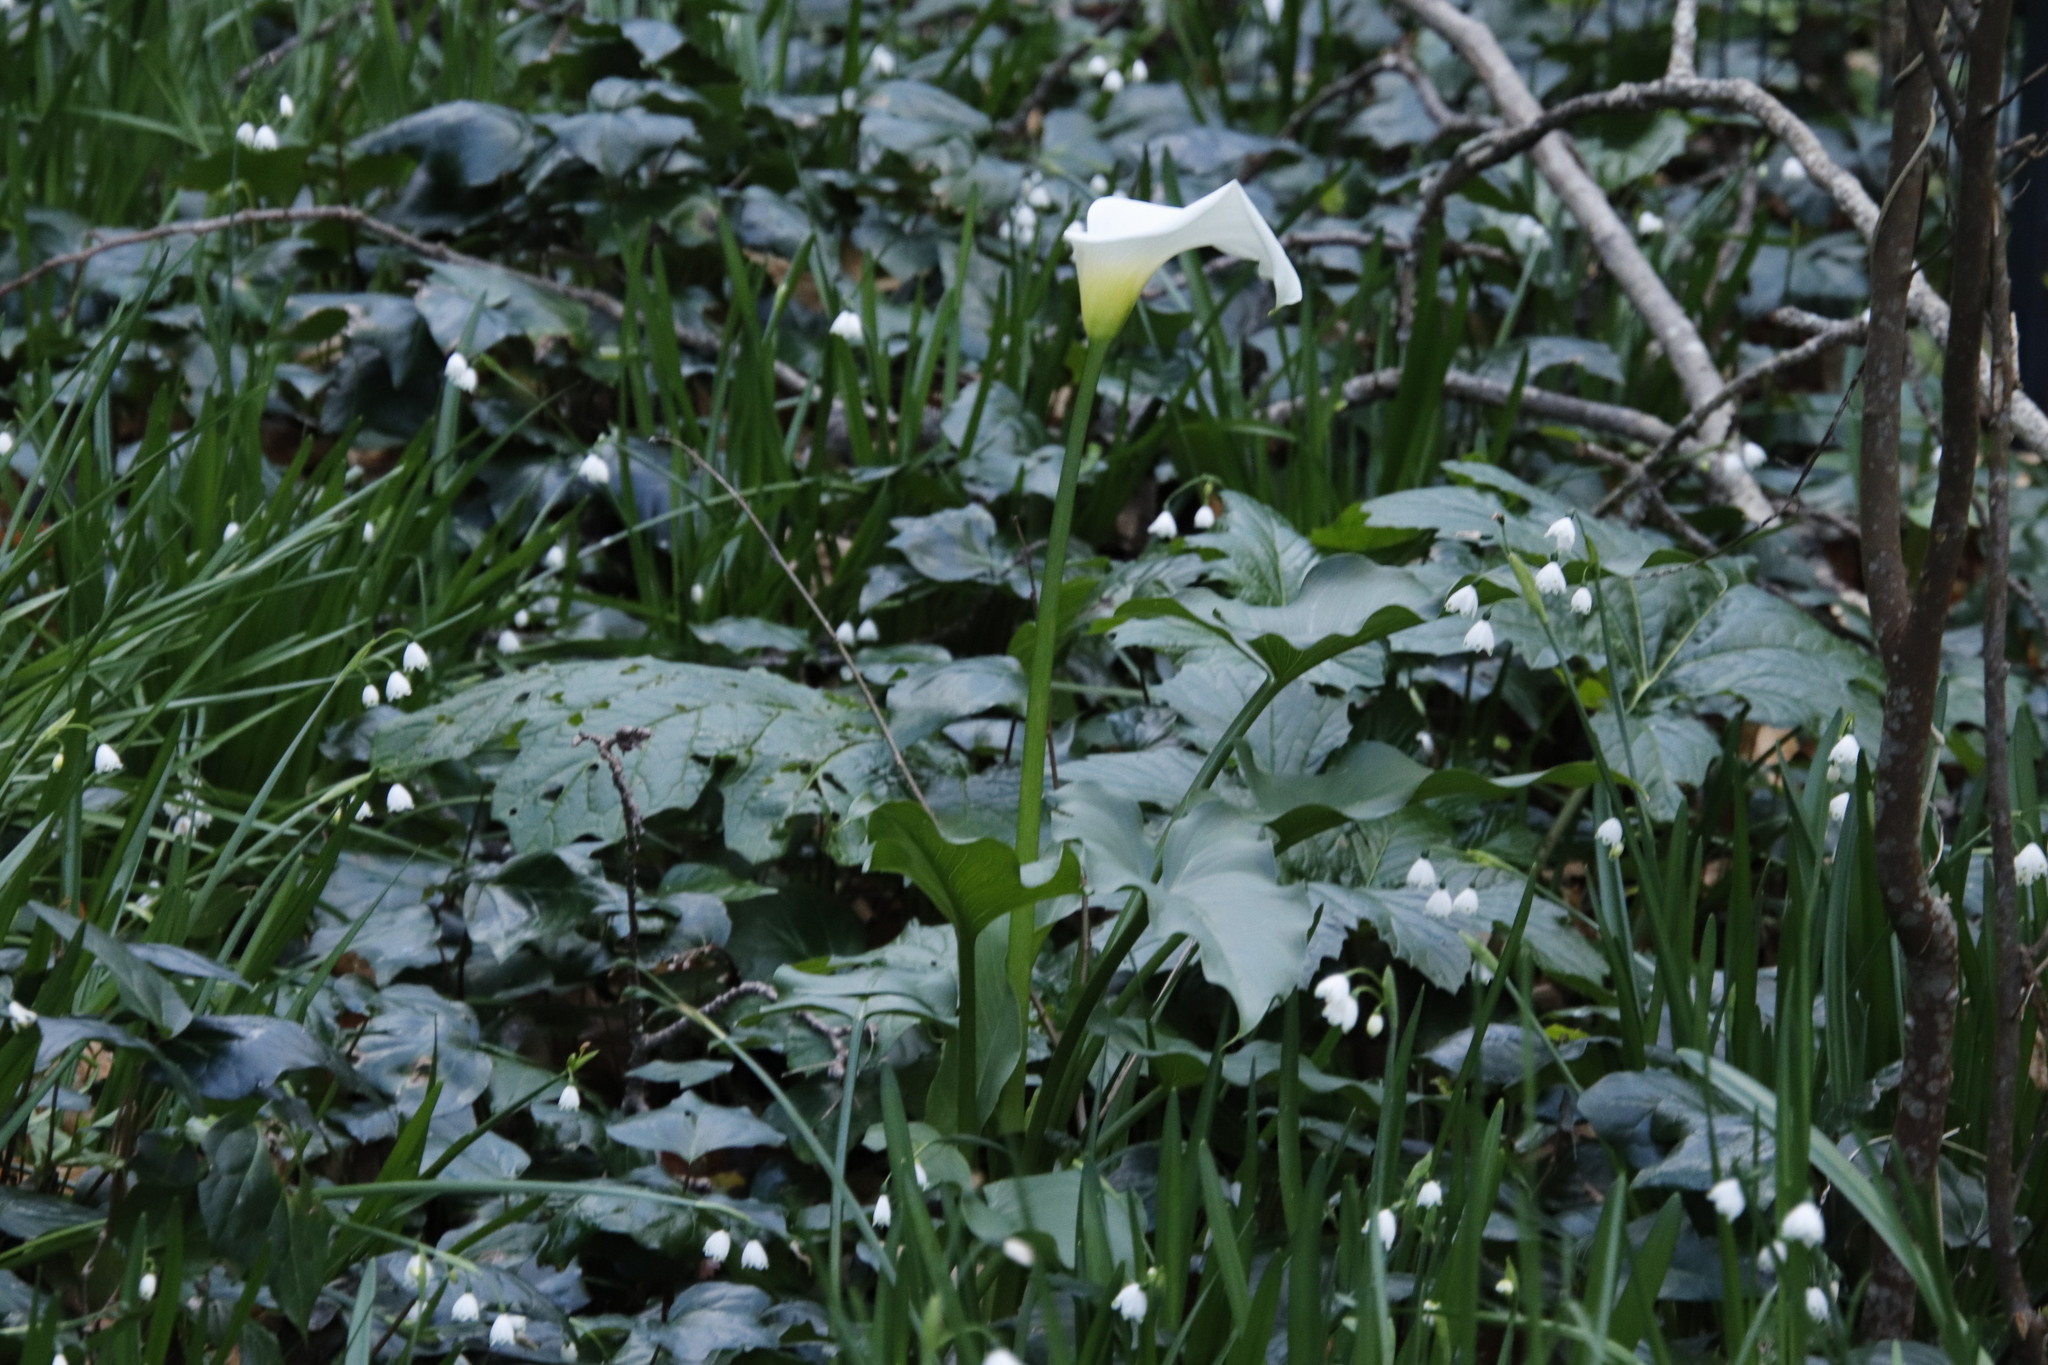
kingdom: Plantae
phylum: Tracheophyta
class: Liliopsida
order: Alismatales
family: Araceae
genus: Zantedeschia
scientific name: Zantedeschia aethiopica
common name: Altar-lily
